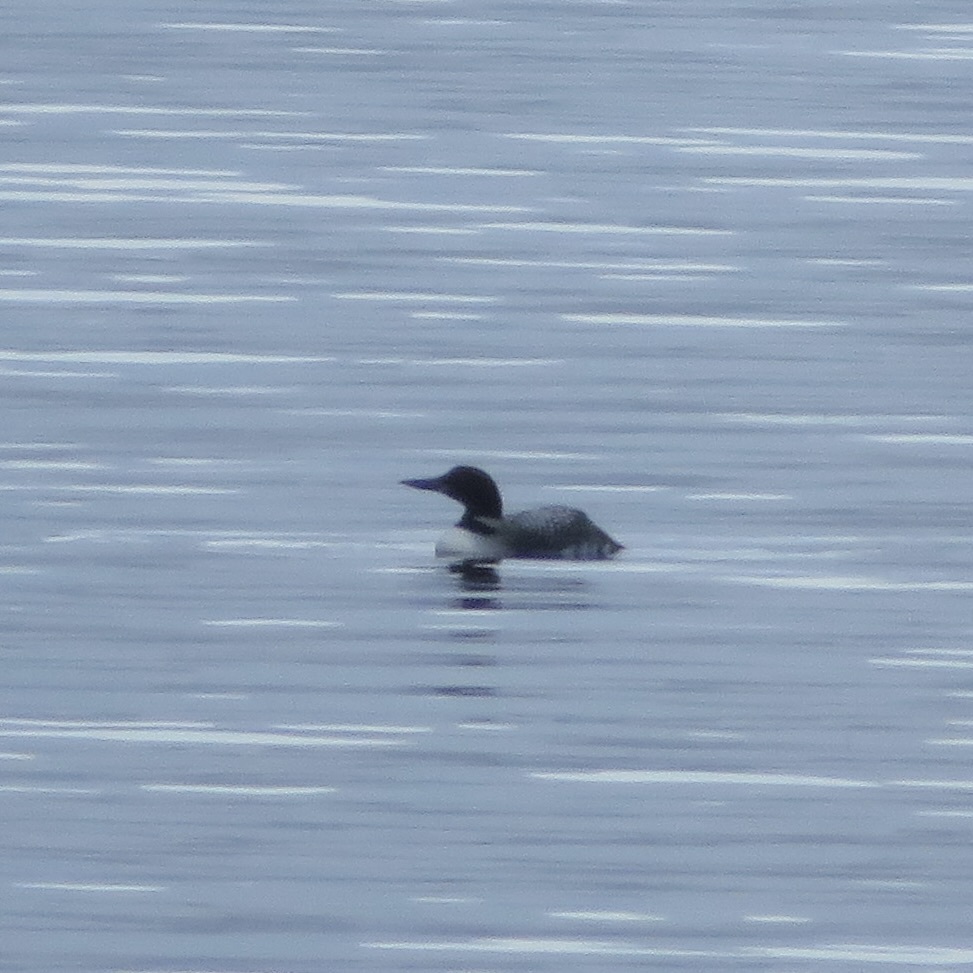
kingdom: Animalia
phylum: Chordata
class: Aves
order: Gaviiformes
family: Gaviidae
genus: Gavia
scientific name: Gavia immer
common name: Common loon
